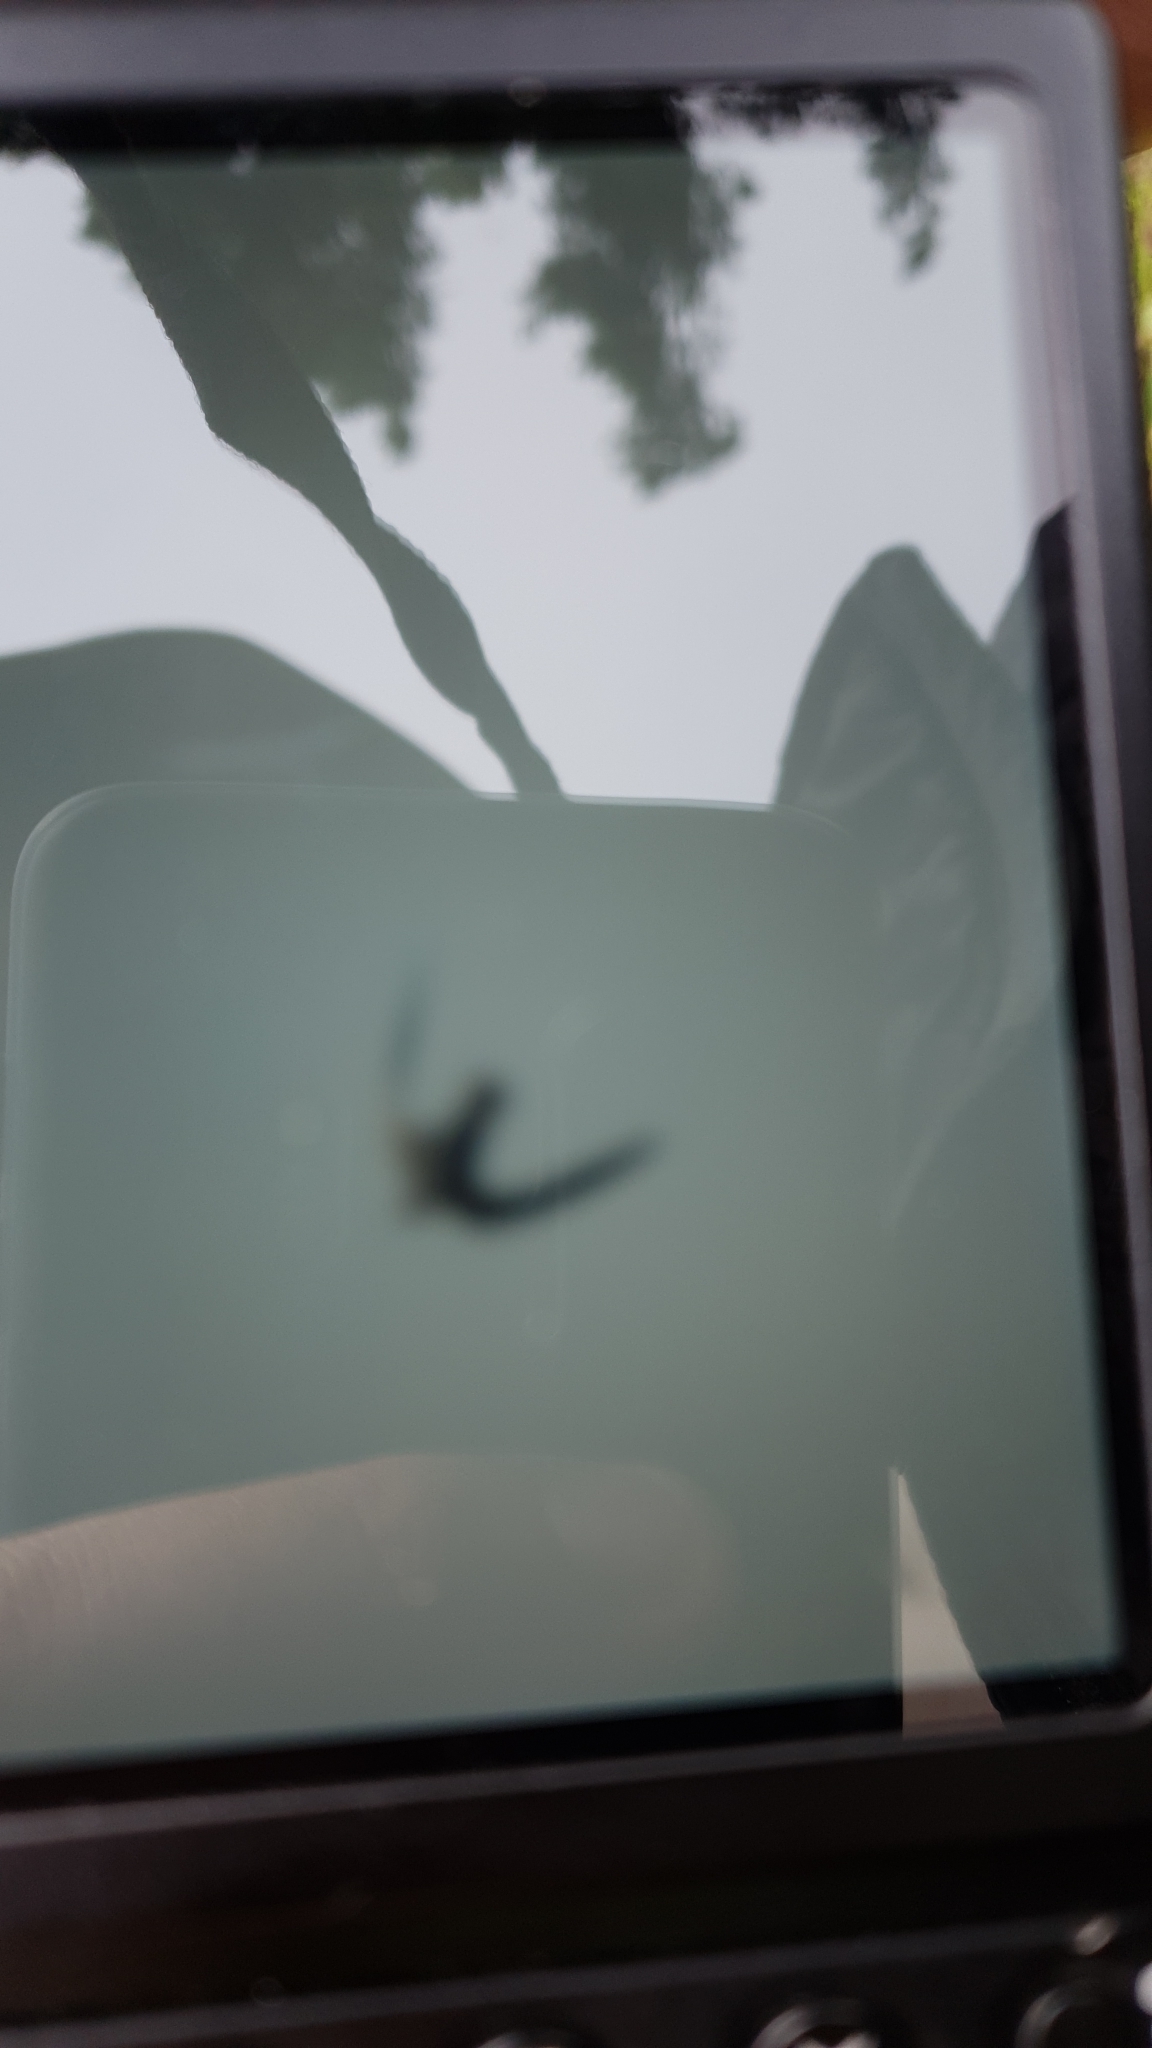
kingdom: Animalia
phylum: Chordata
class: Aves
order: Cuculiformes
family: Cuculidae
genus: Cuculus
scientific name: Cuculus canorus
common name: Common cuckoo
